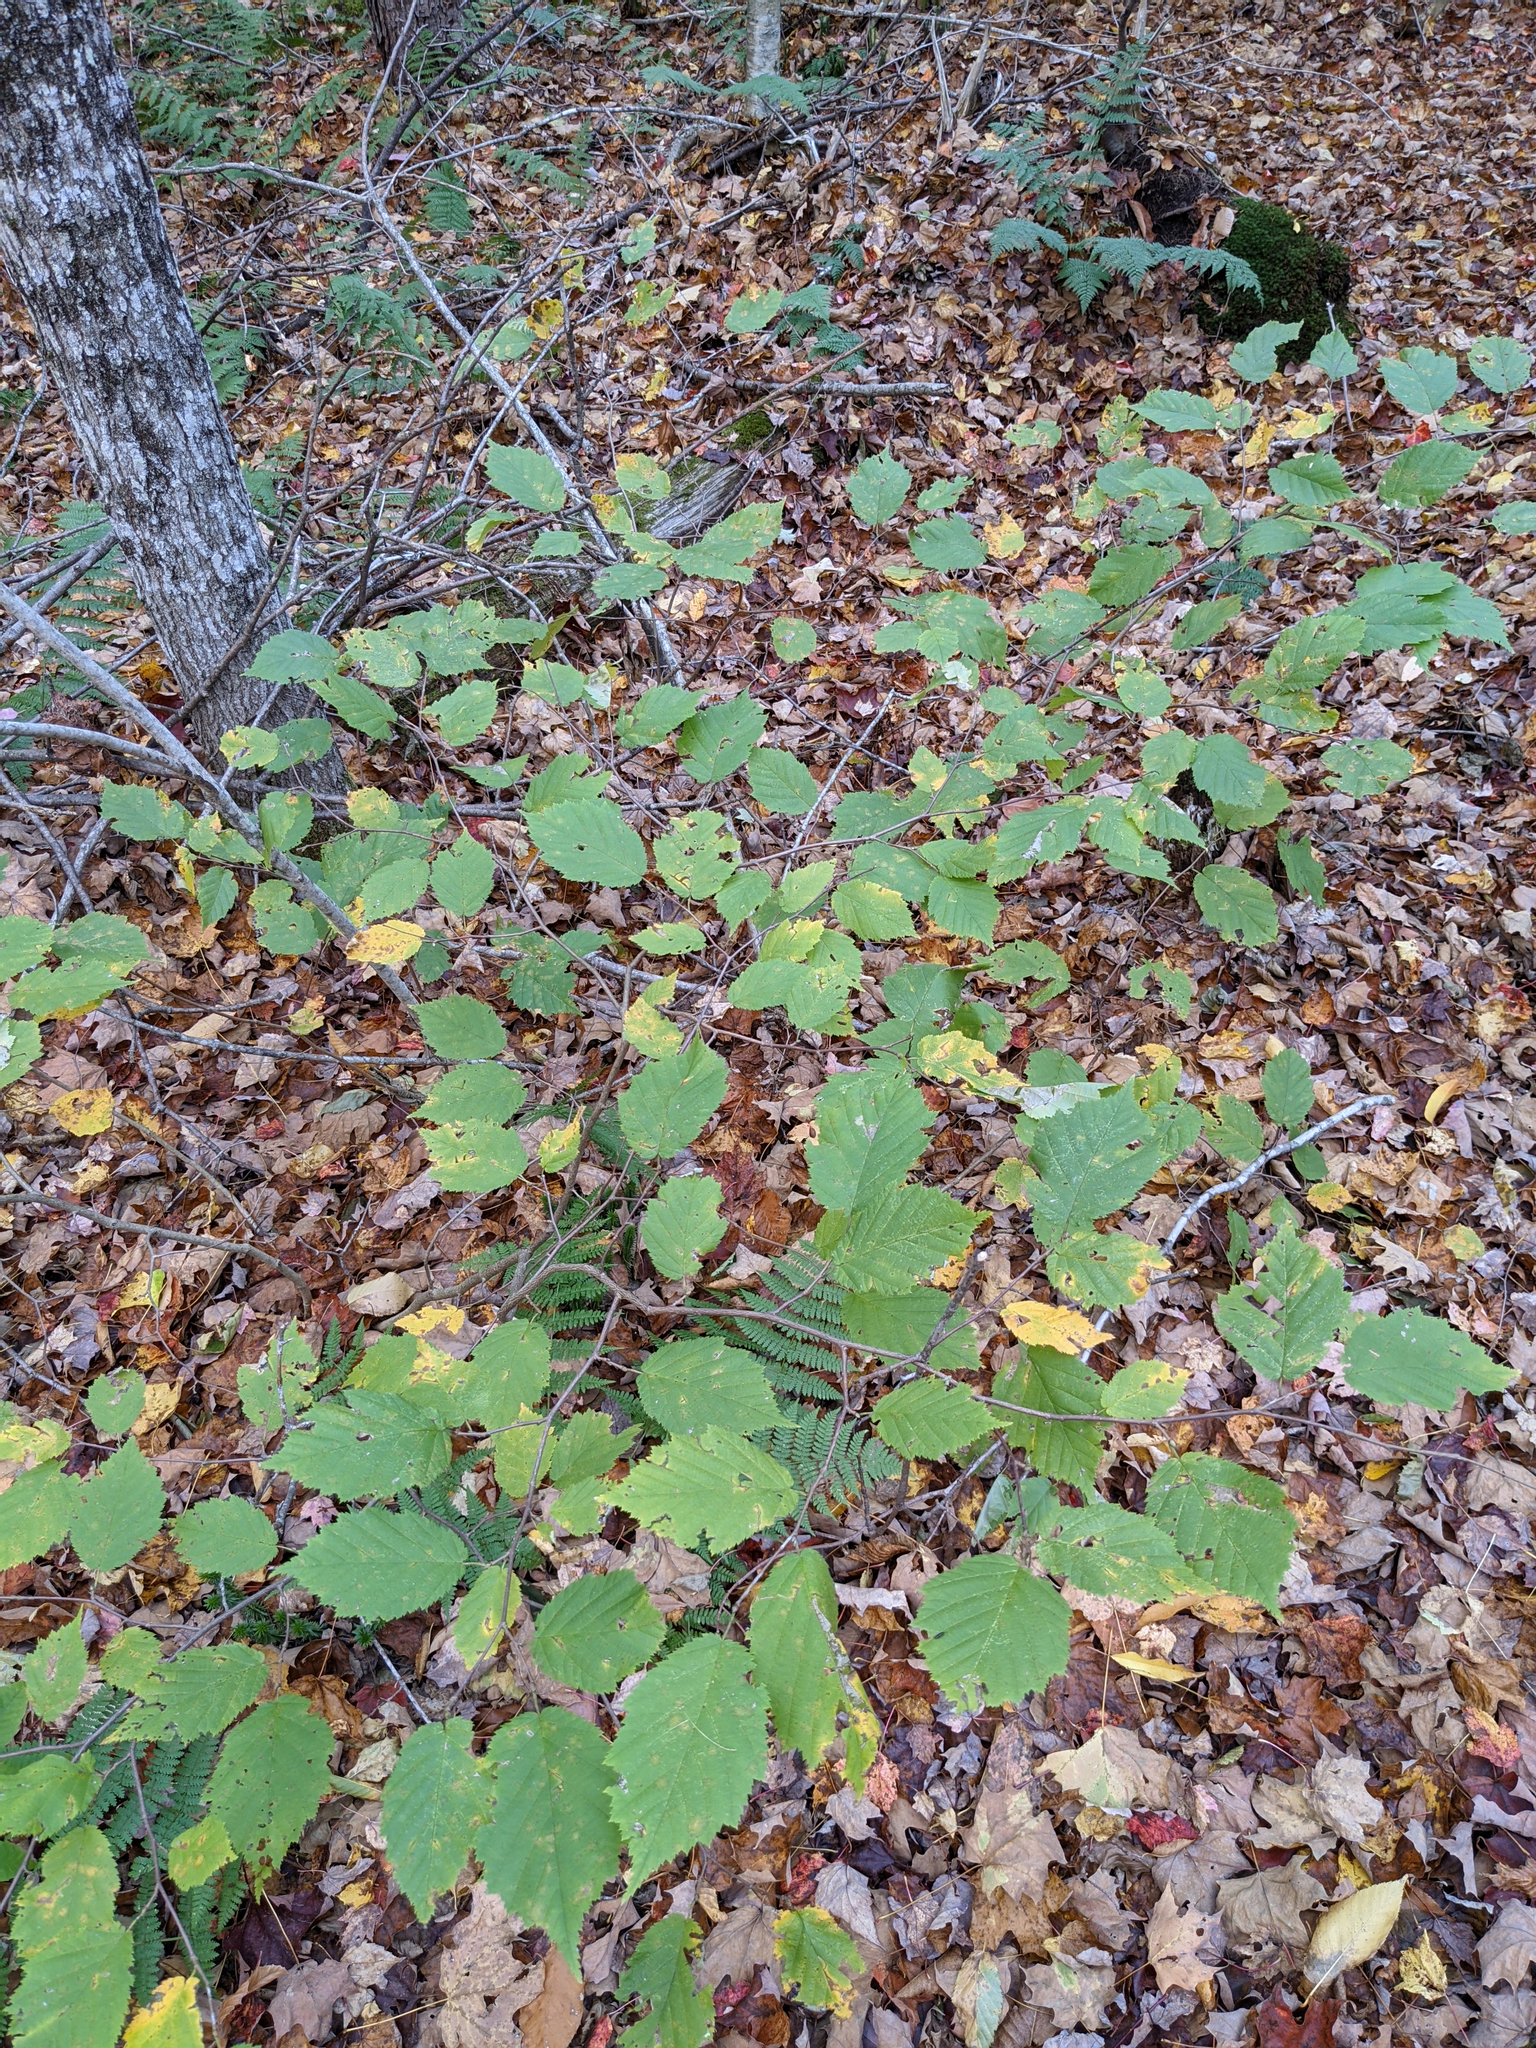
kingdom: Plantae
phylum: Tracheophyta
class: Magnoliopsida
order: Fagales
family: Betulaceae
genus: Corylus
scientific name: Corylus cornuta
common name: Beaked hazel
